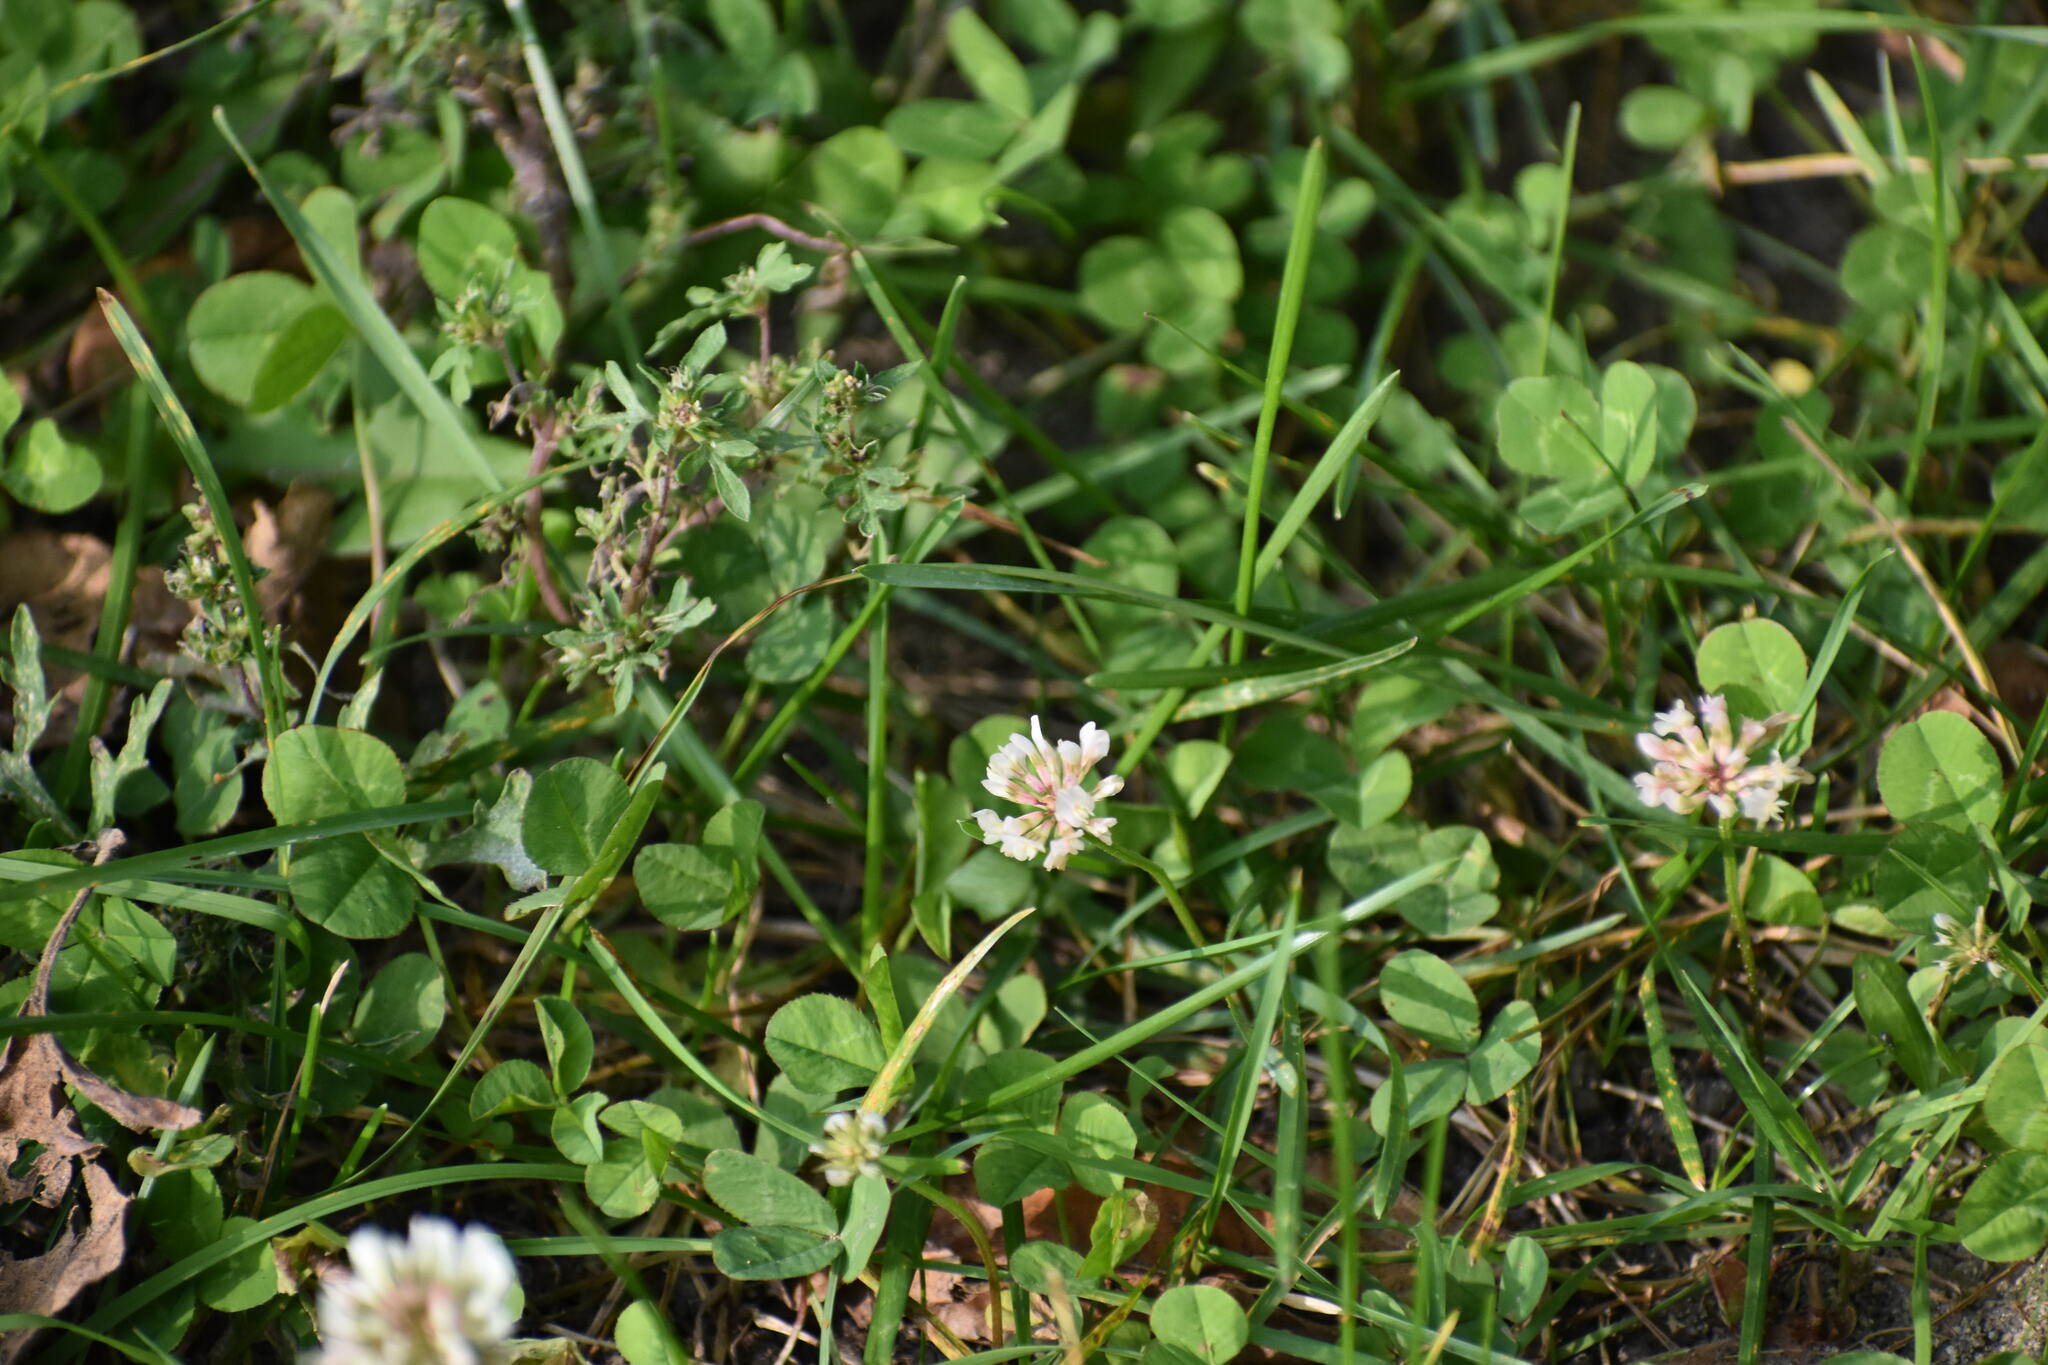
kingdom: Plantae
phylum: Tracheophyta
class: Magnoliopsida
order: Fabales
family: Fabaceae
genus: Trifolium
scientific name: Trifolium repens
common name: White clover
